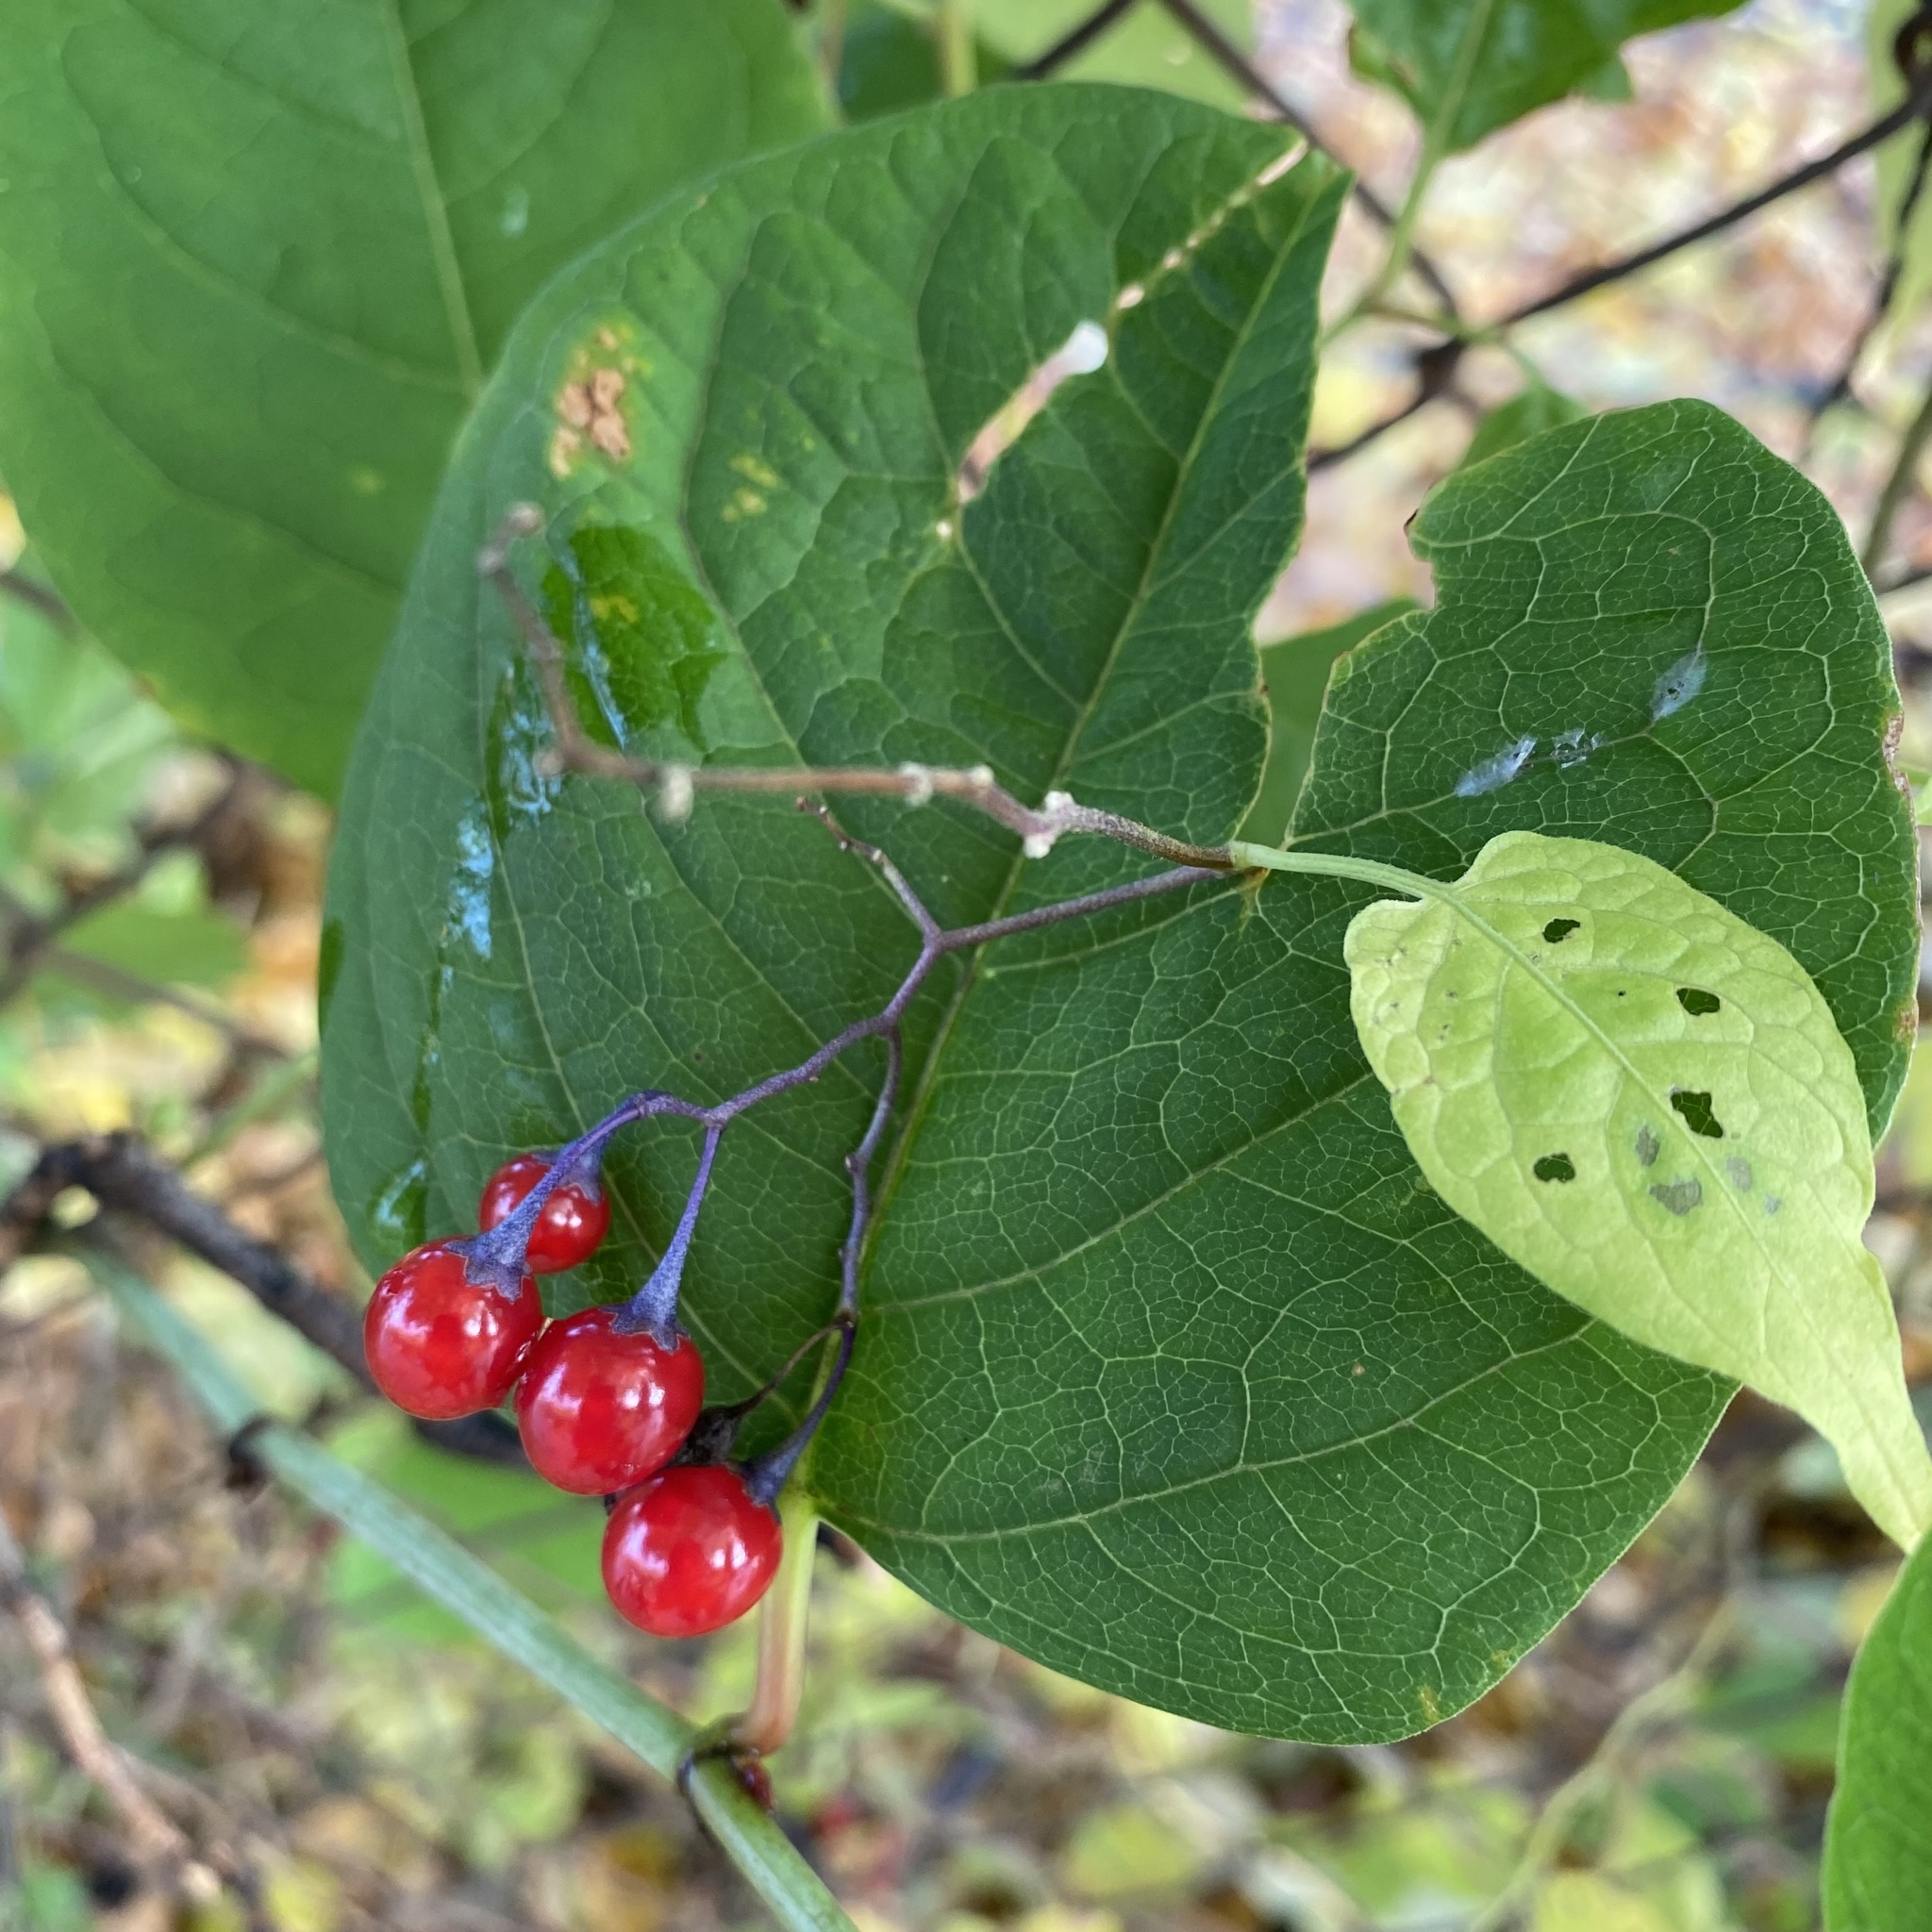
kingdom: Plantae
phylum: Tracheophyta
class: Magnoliopsida
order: Solanales
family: Solanaceae
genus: Solanum
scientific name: Solanum dulcamara
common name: Climbing nightshade
